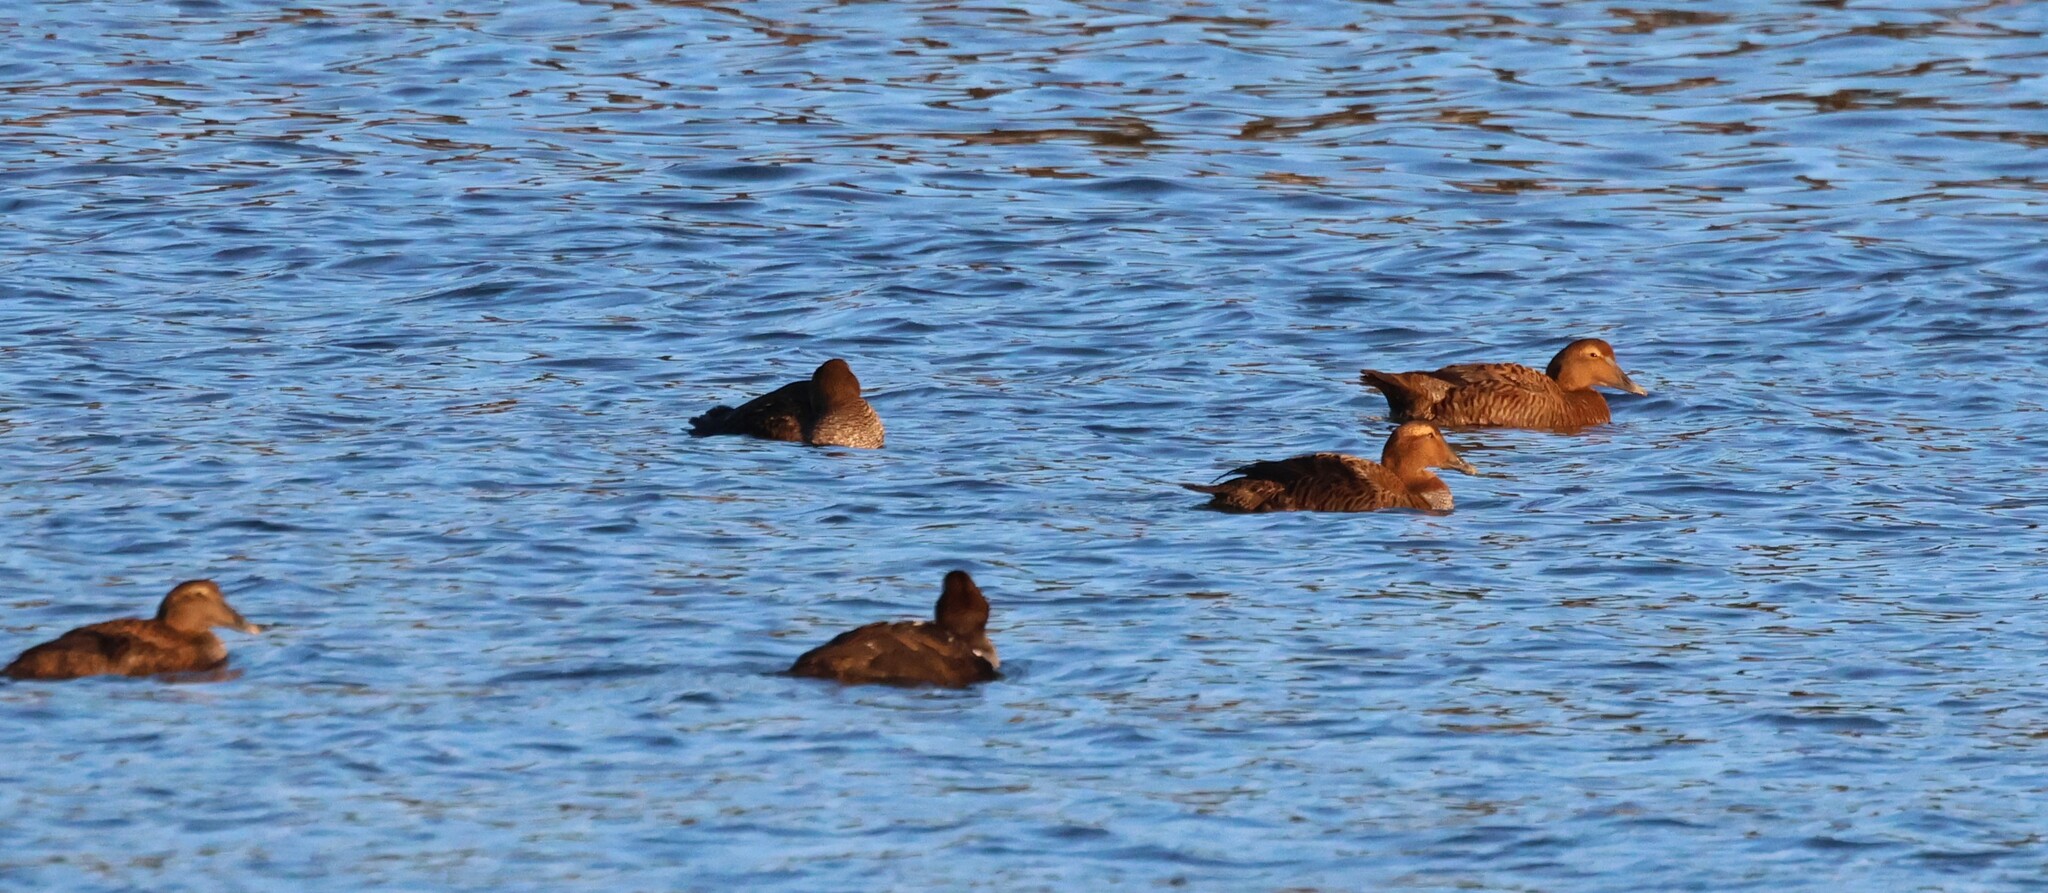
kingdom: Animalia
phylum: Chordata
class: Aves
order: Anseriformes
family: Anatidae
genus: Somateria
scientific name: Somateria mollissima
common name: Common eider
